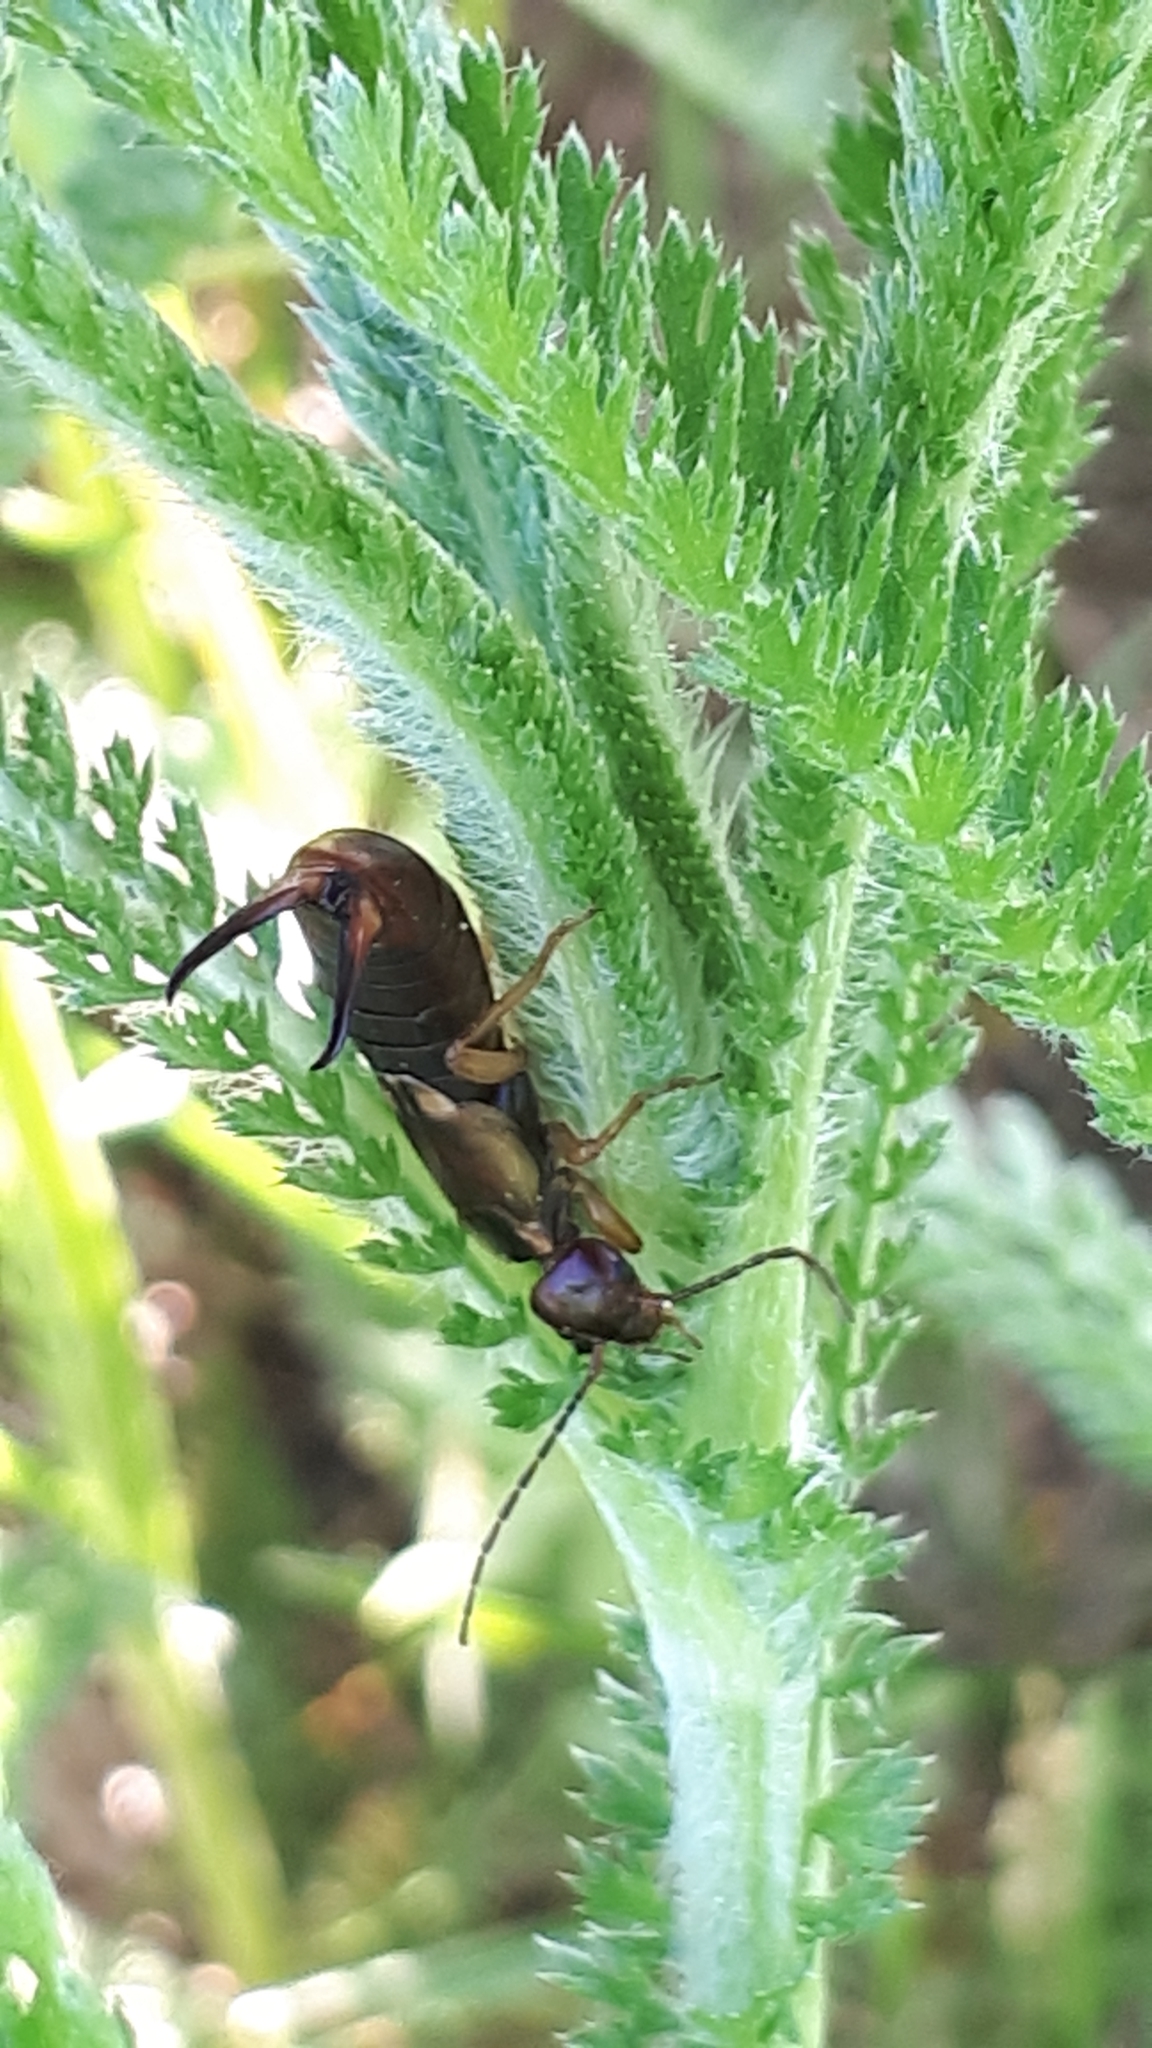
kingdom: Animalia
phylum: Arthropoda
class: Insecta
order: Dermaptera
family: Forficulidae
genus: Forficula
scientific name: Forficula
